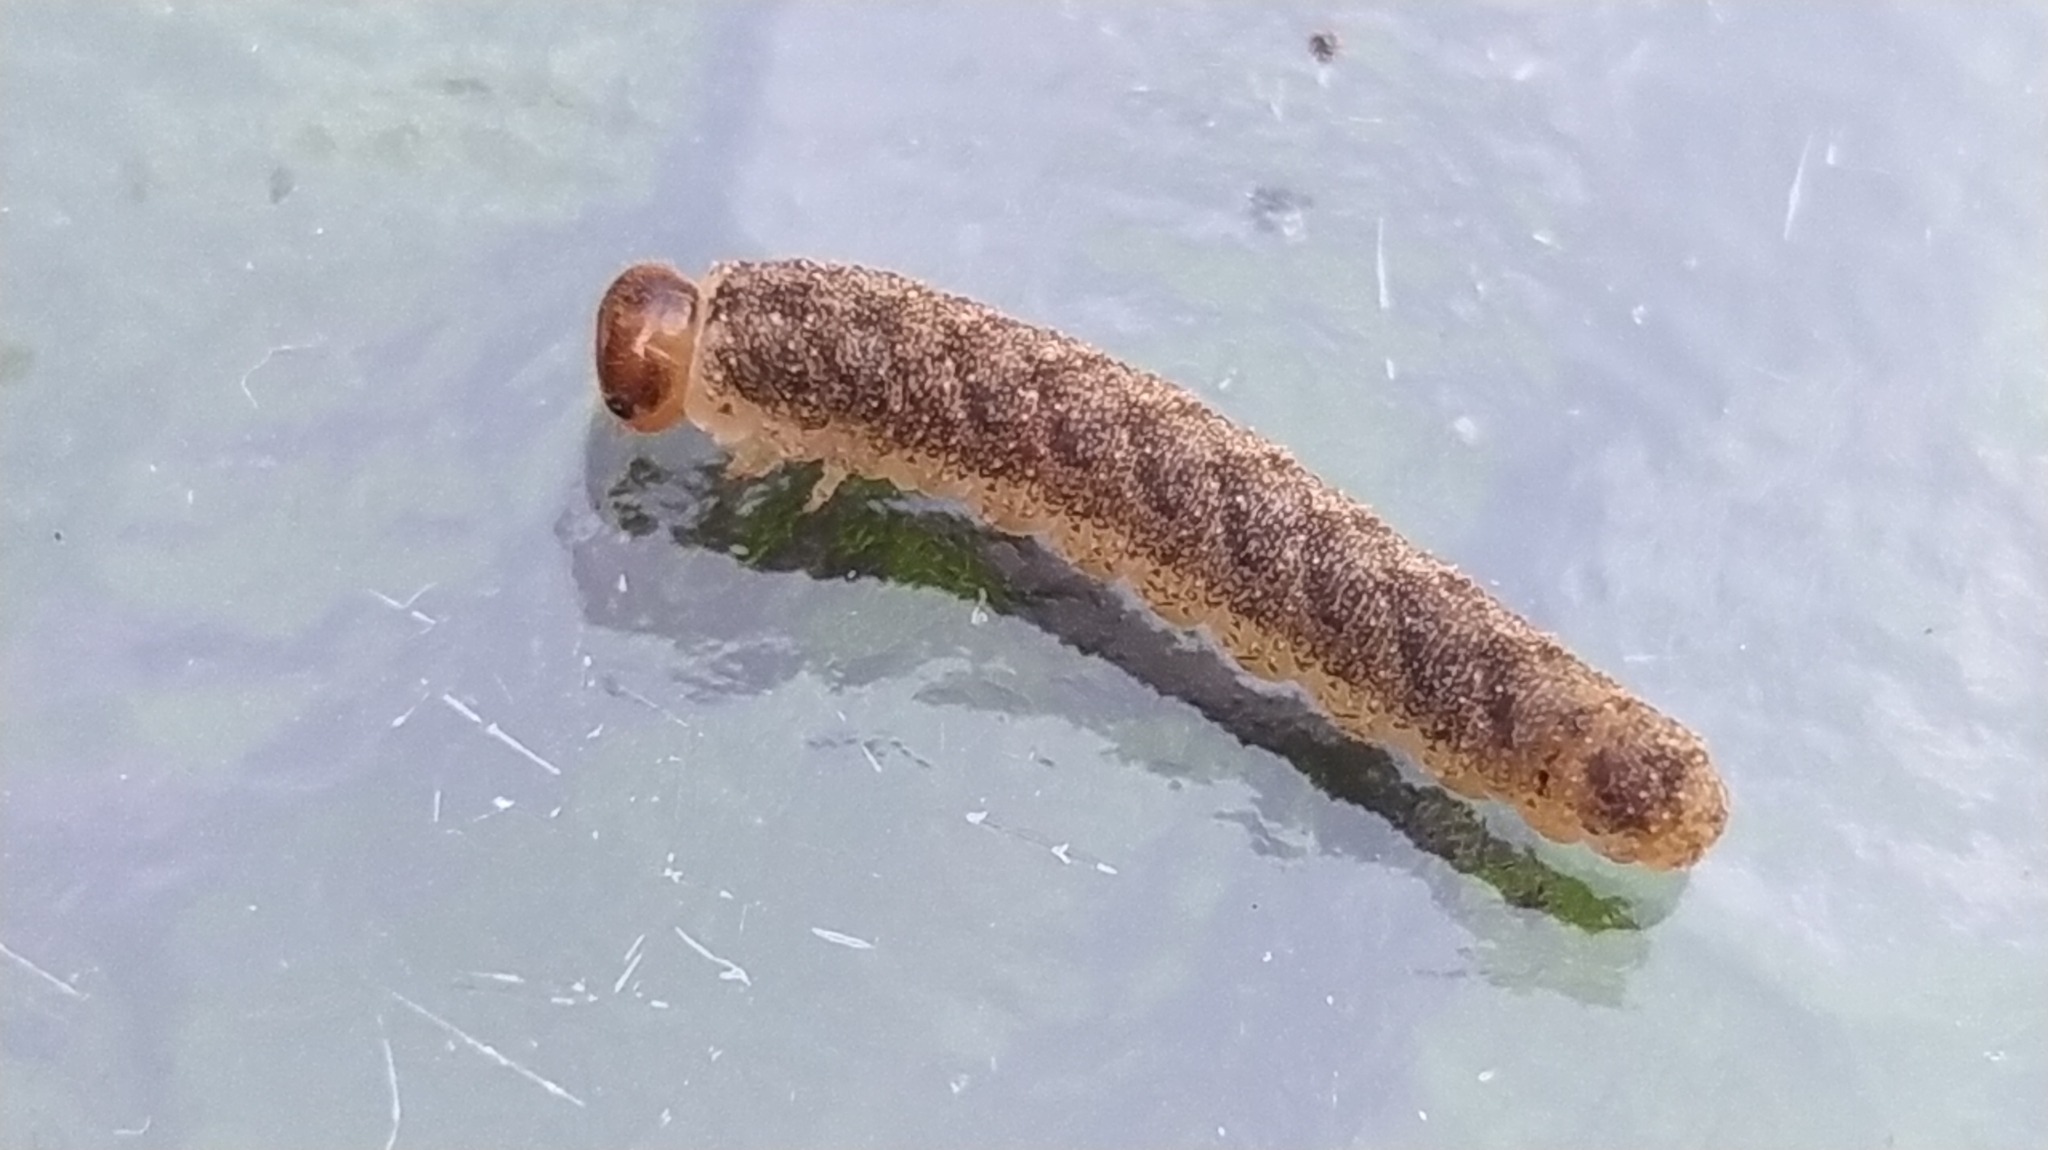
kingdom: Animalia
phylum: Arthropoda
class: Insecta
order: Hymenoptera
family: Tenthredinidae
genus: Tenthredo
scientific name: Tenthredo ferruginea
